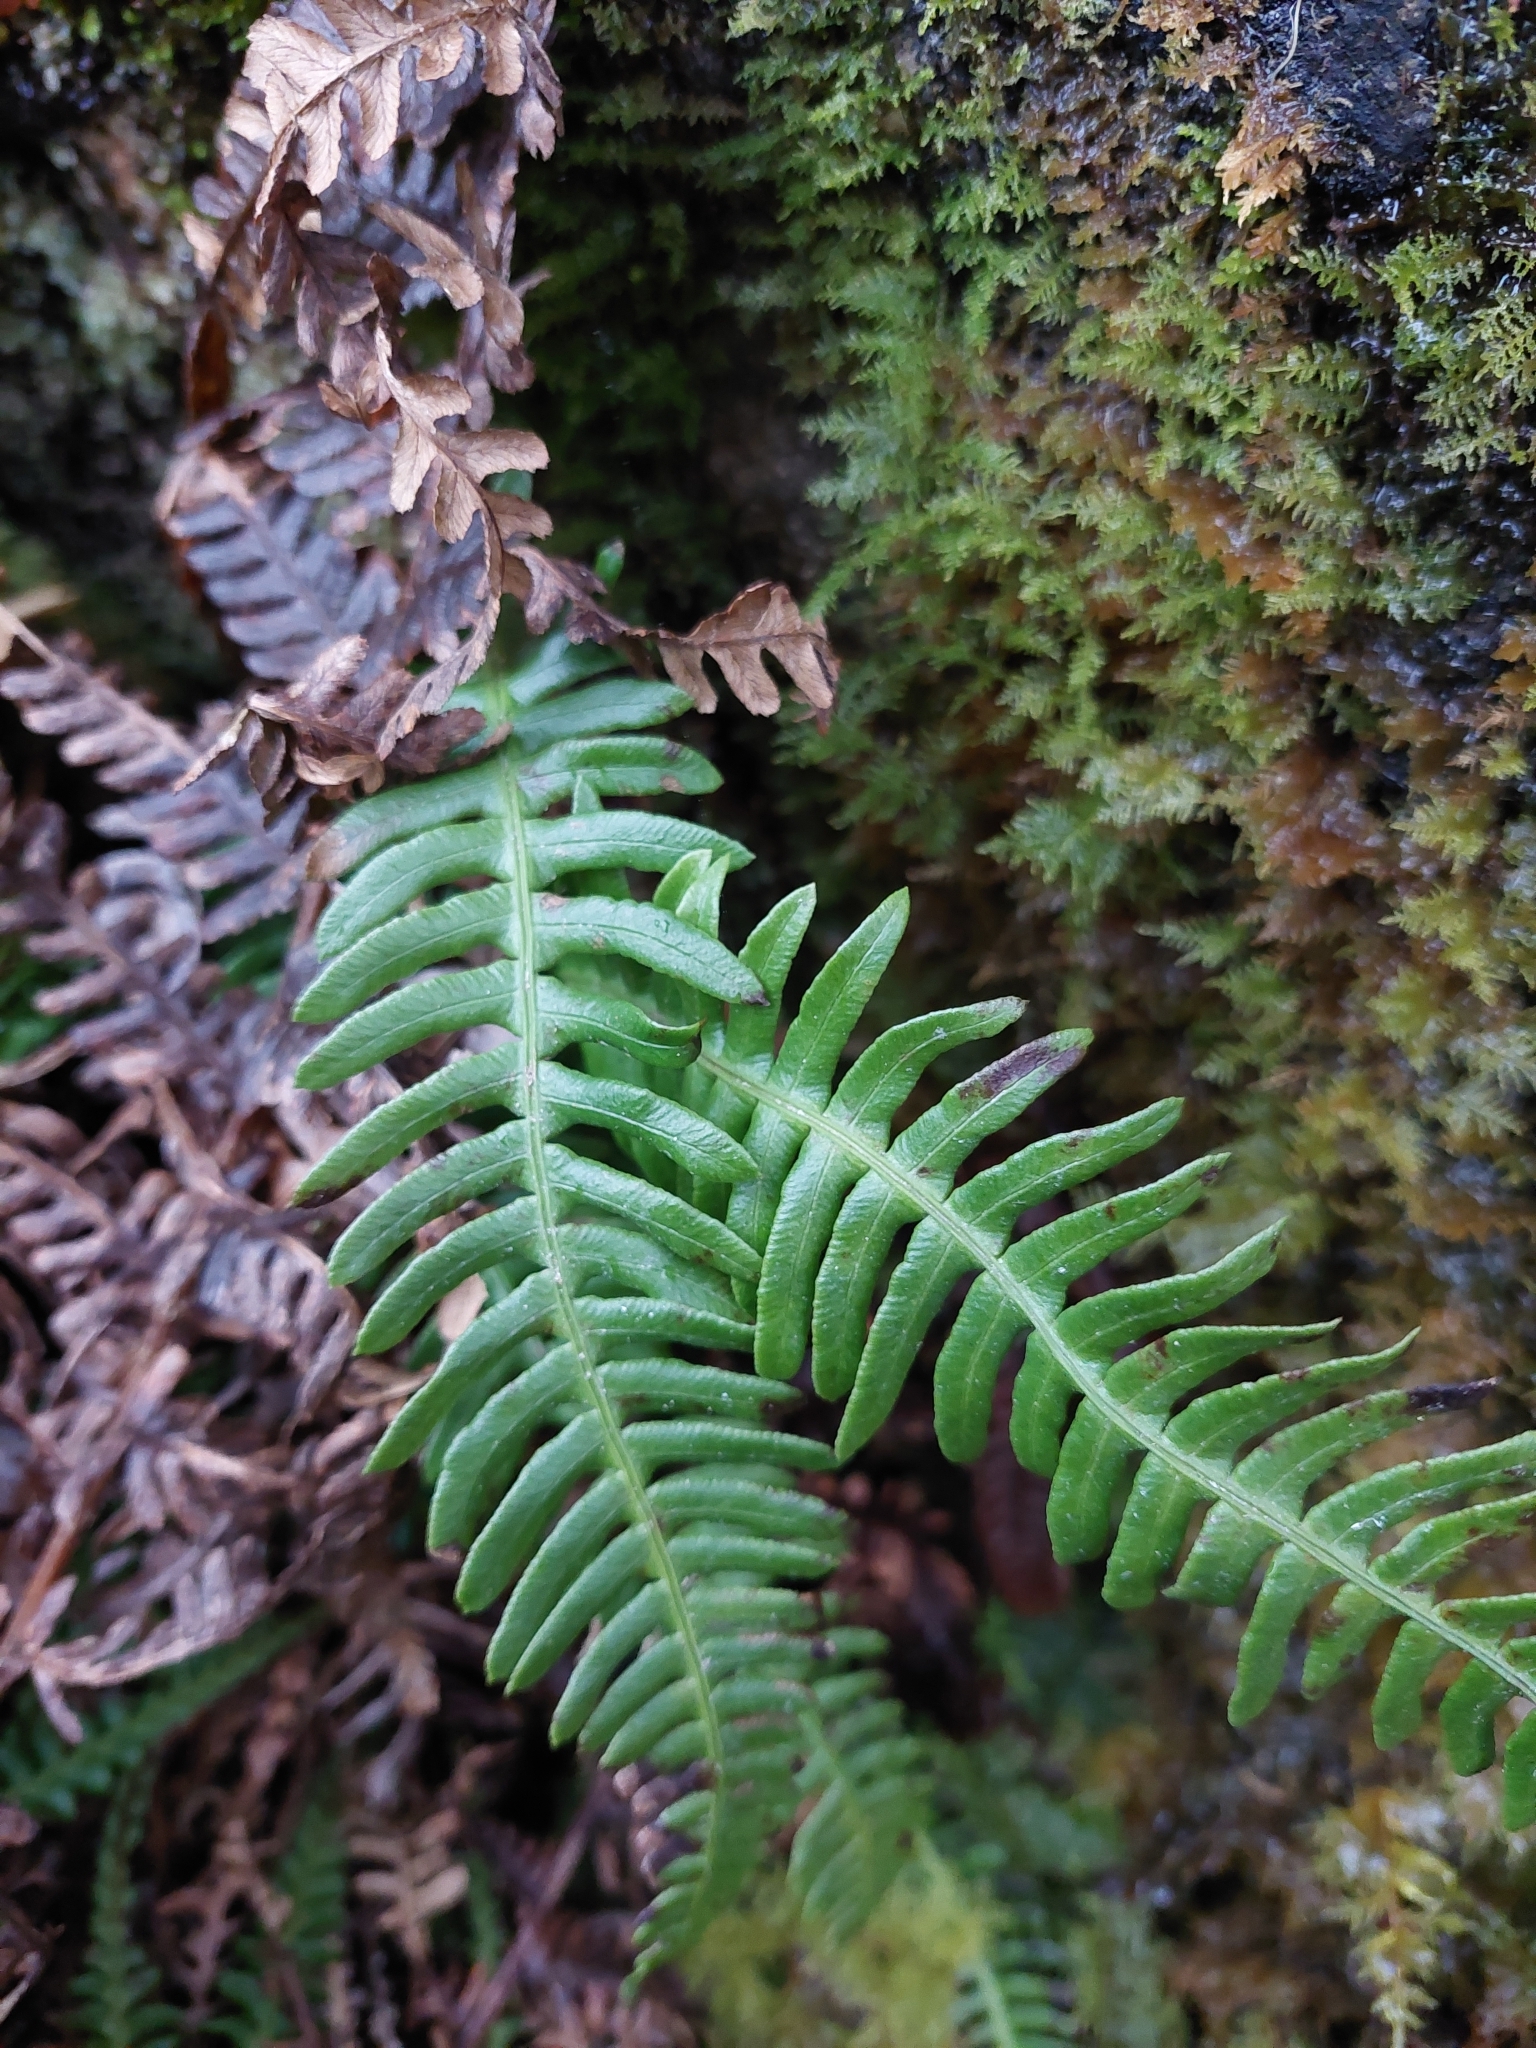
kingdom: Plantae
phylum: Tracheophyta
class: Polypodiopsida
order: Polypodiales
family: Blechnaceae
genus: Struthiopteris
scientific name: Struthiopteris spicant
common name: Deer fern
